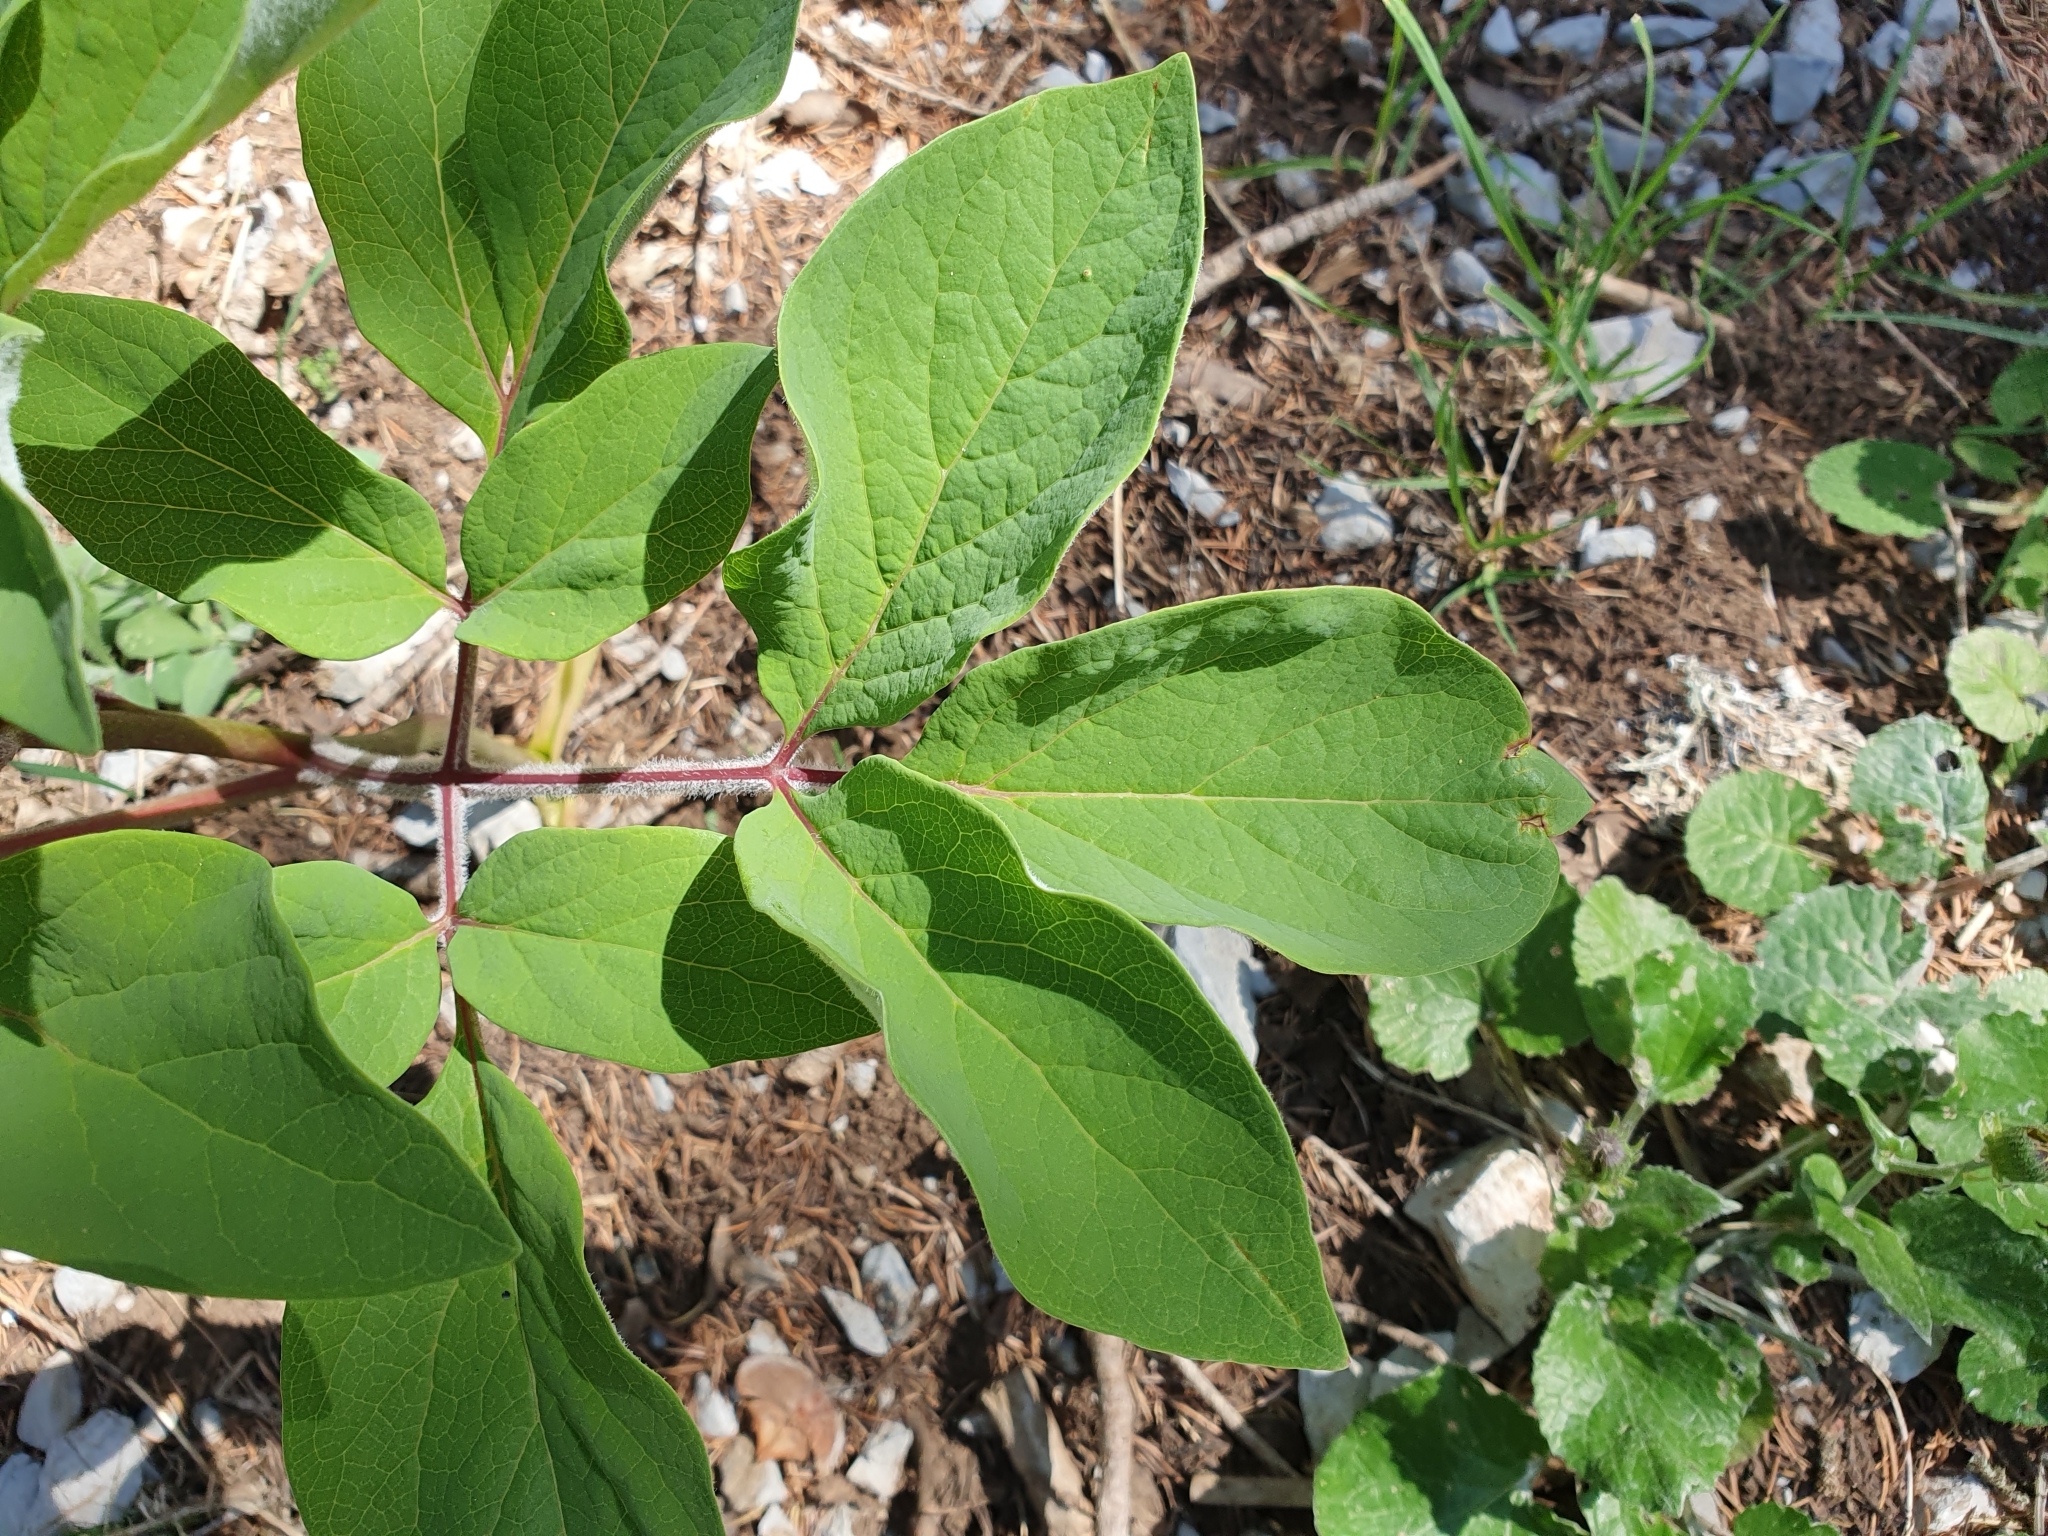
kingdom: Plantae
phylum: Tracheophyta
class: Magnoliopsida
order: Saxifragales
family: Paeoniaceae
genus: Paeonia
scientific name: Paeonia algeriensis
